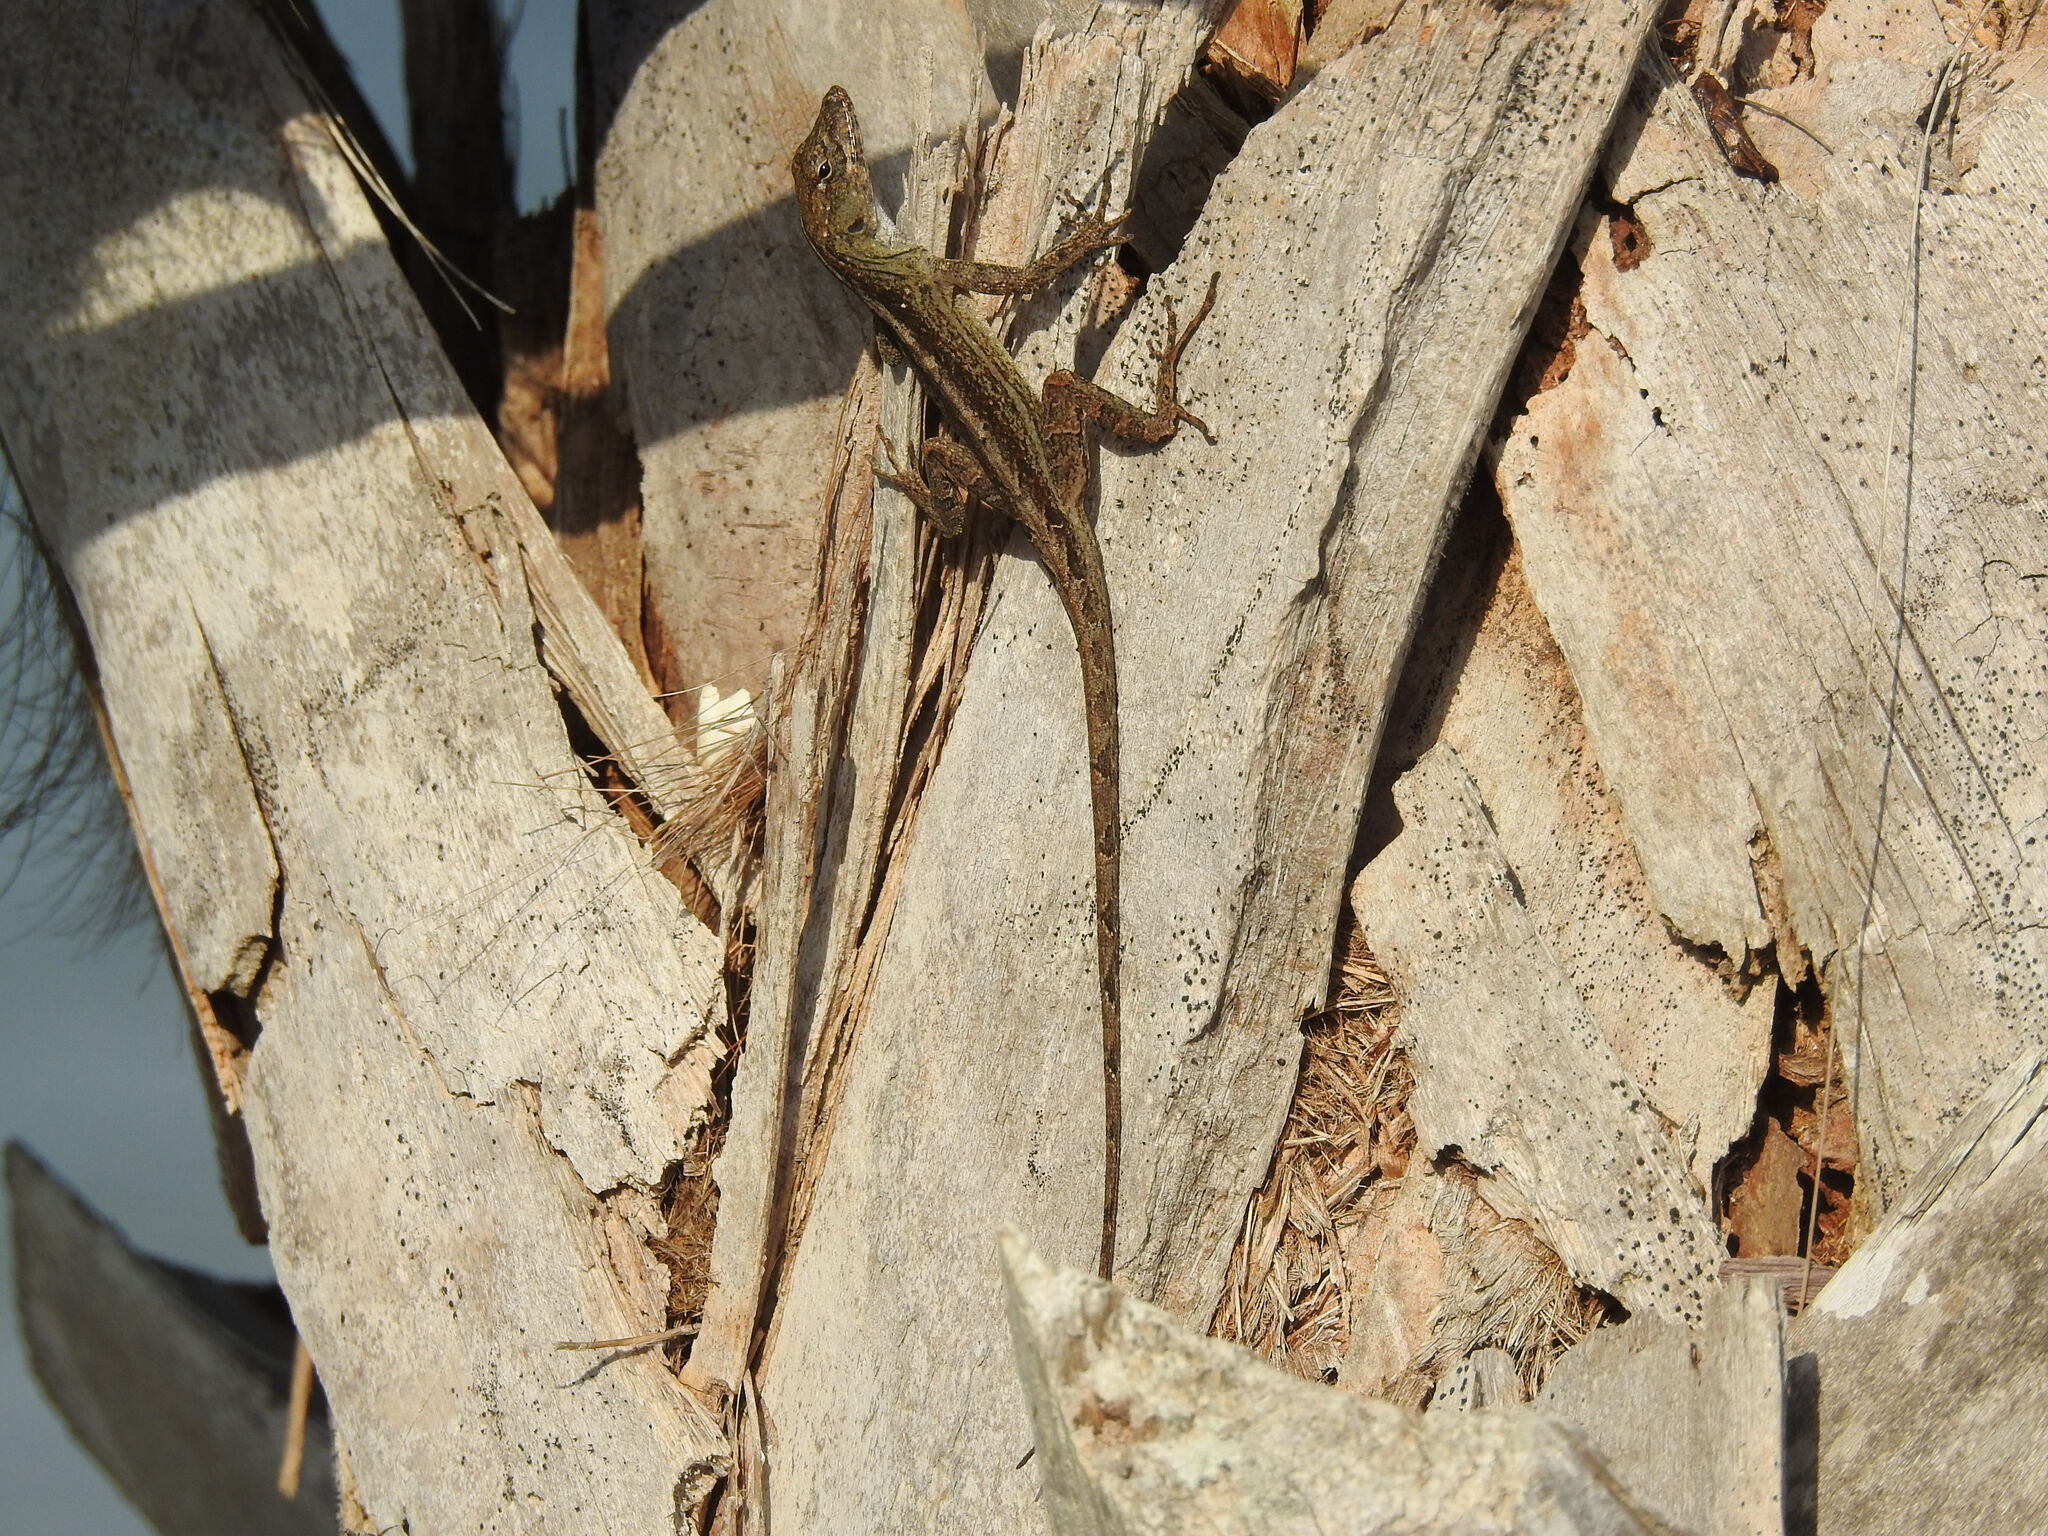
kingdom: Animalia
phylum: Chordata
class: Squamata
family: Dactyloidae
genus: Anolis
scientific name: Anolis sagrei
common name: Brown anole
